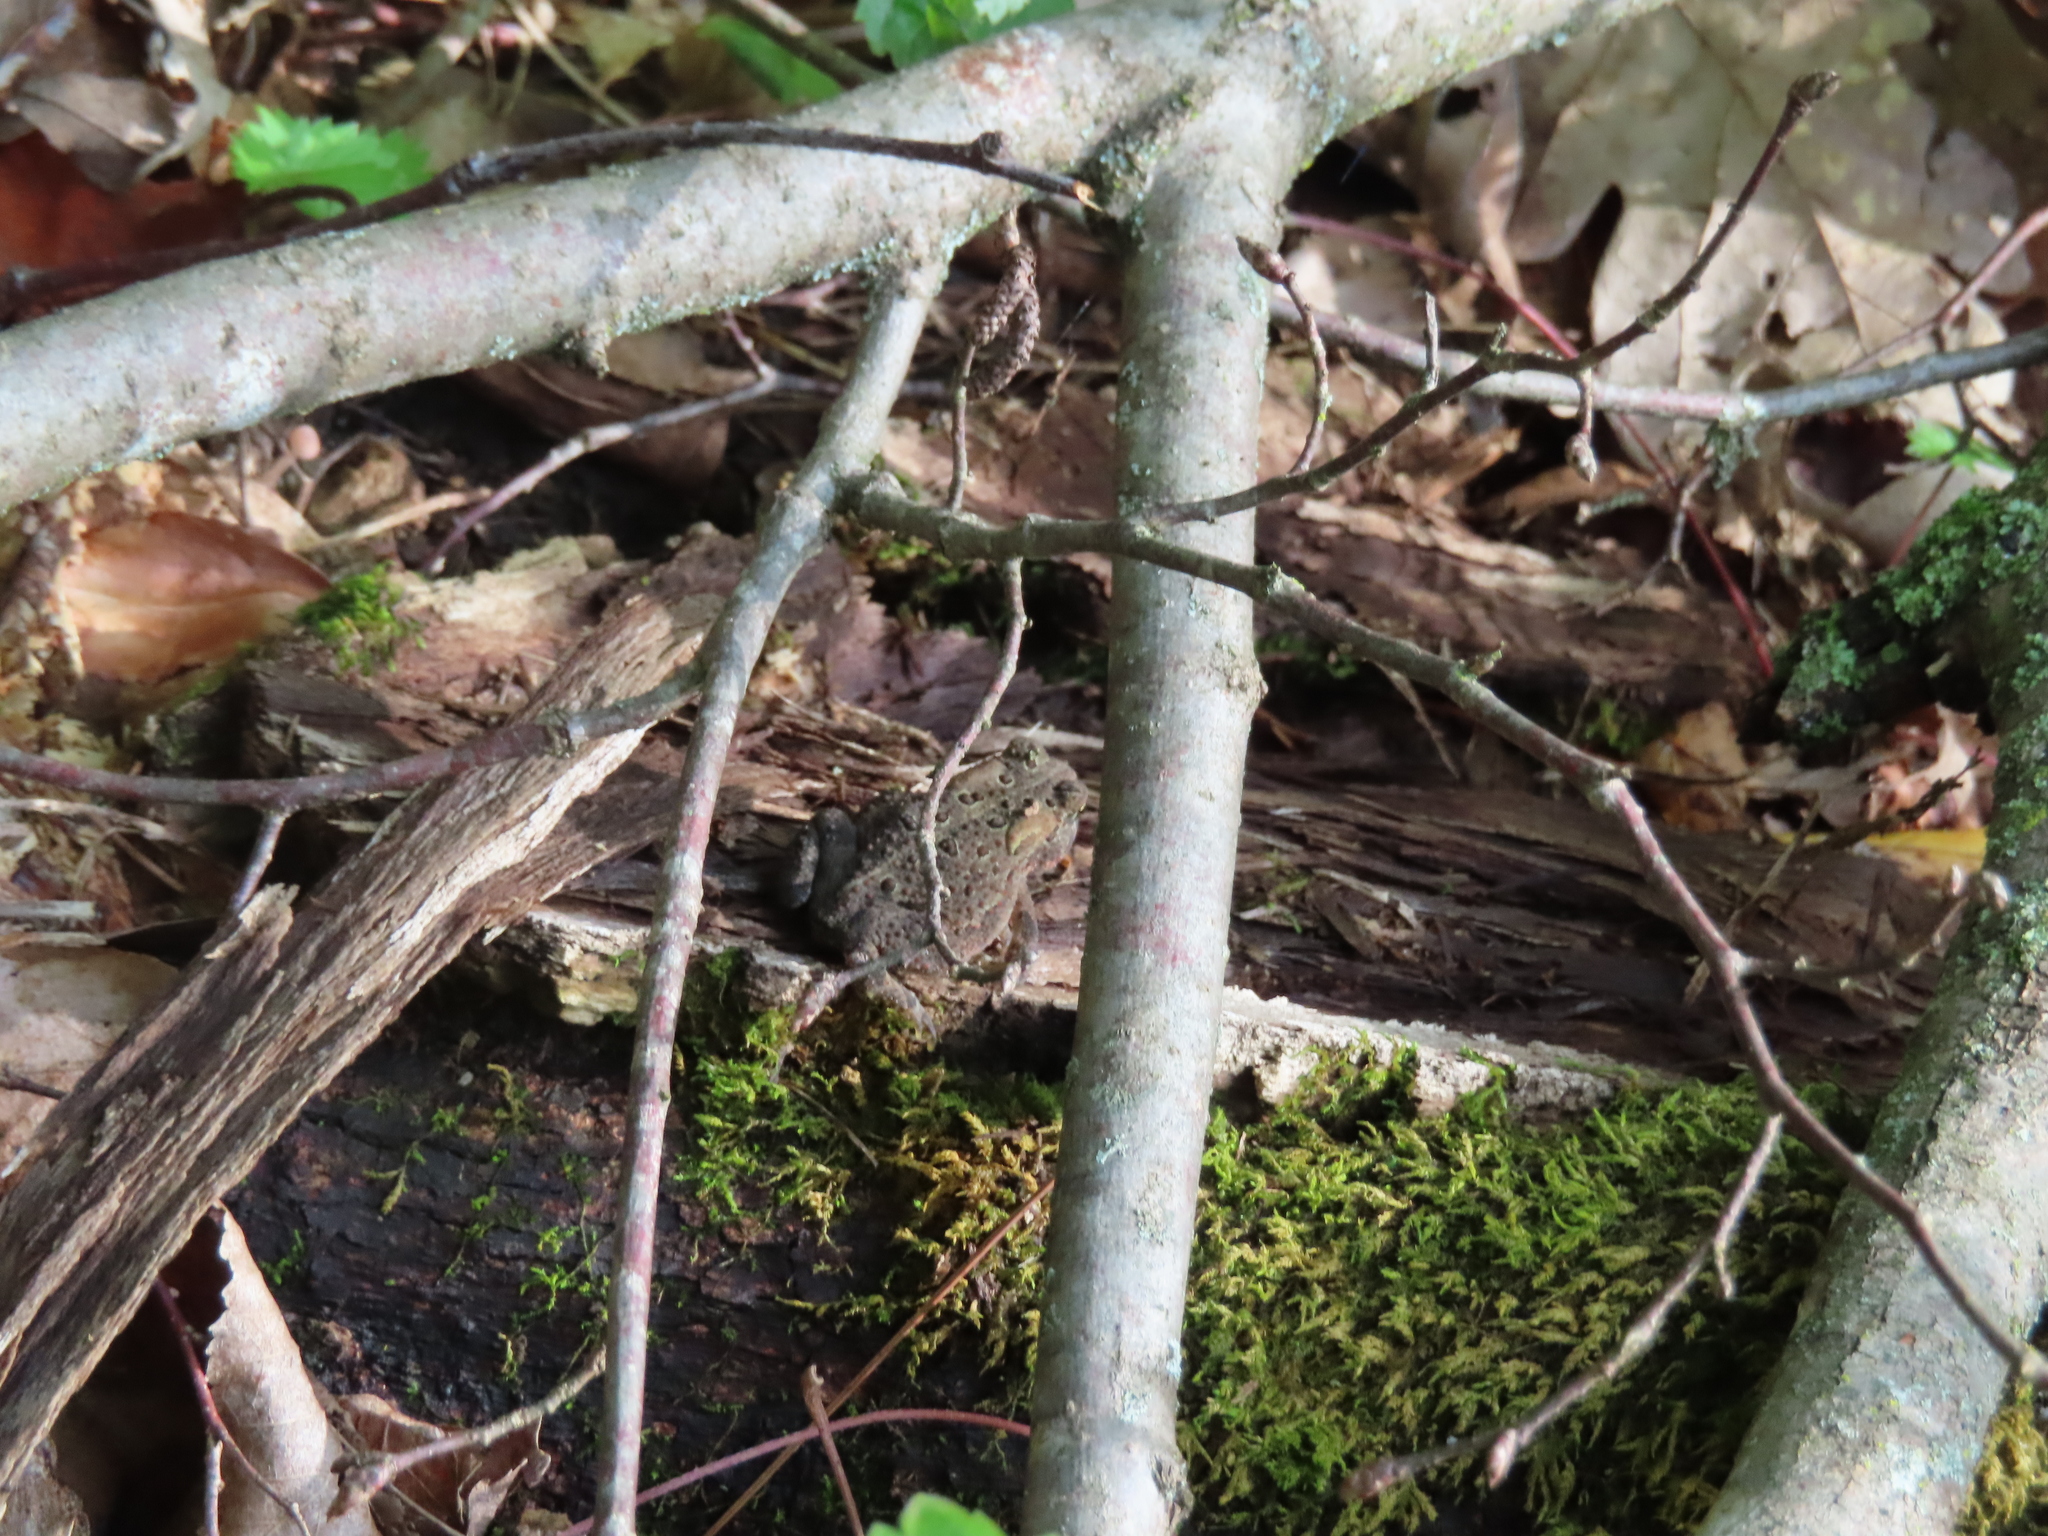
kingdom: Animalia
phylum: Chordata
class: Amphibia
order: Anura
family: Bufonidae
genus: Anaxyrus
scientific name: Anaxyrus americanus
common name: American toad
